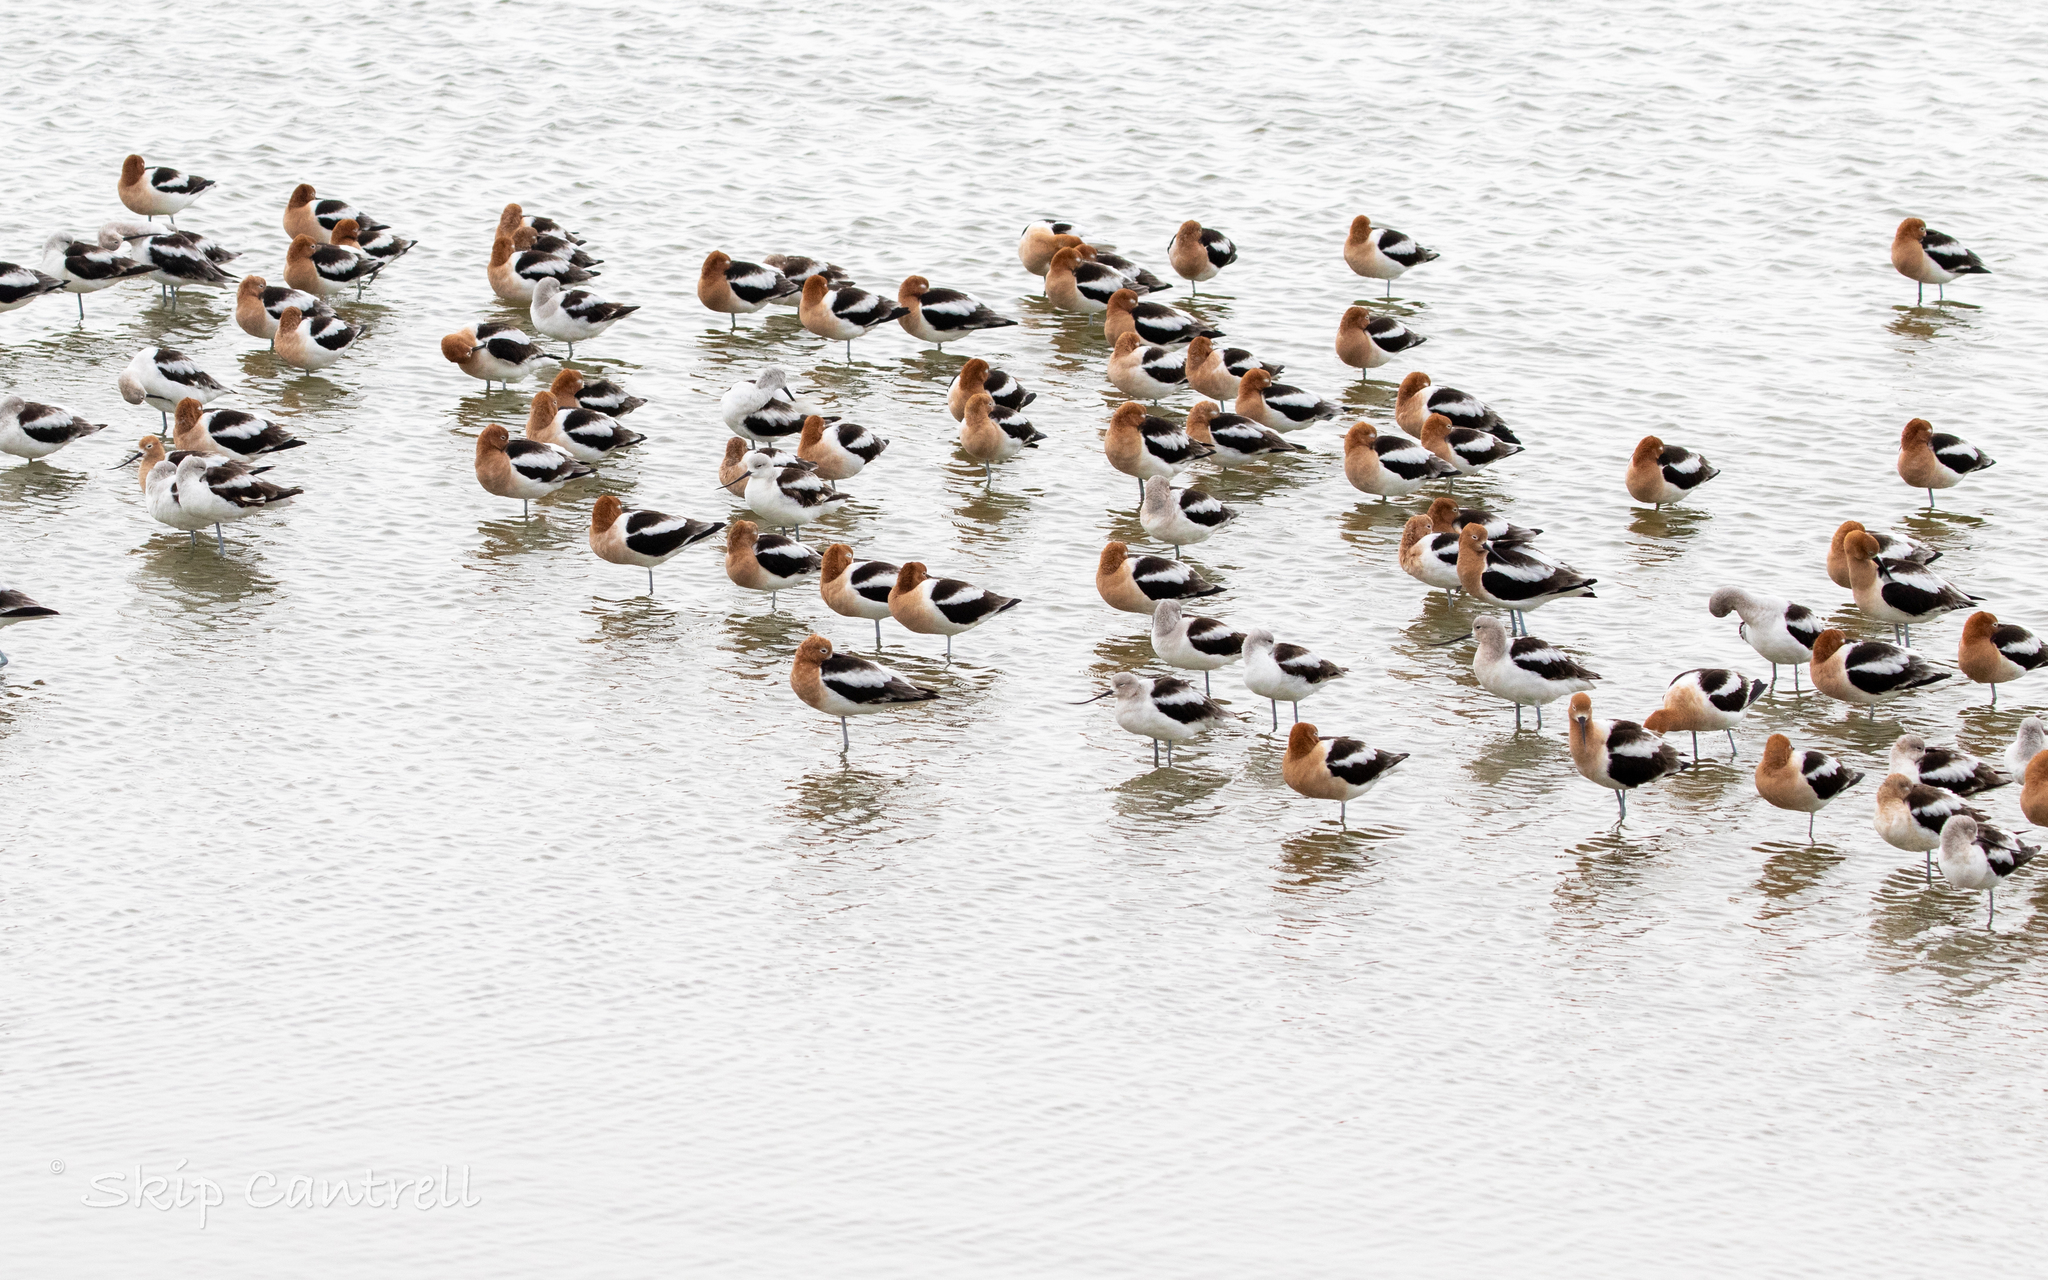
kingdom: Animalia
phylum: Chordata
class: Aves
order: Charadriiformes
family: Recurvirostridae
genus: Recurvirostra
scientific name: Recurvirostra americana
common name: American avocet
